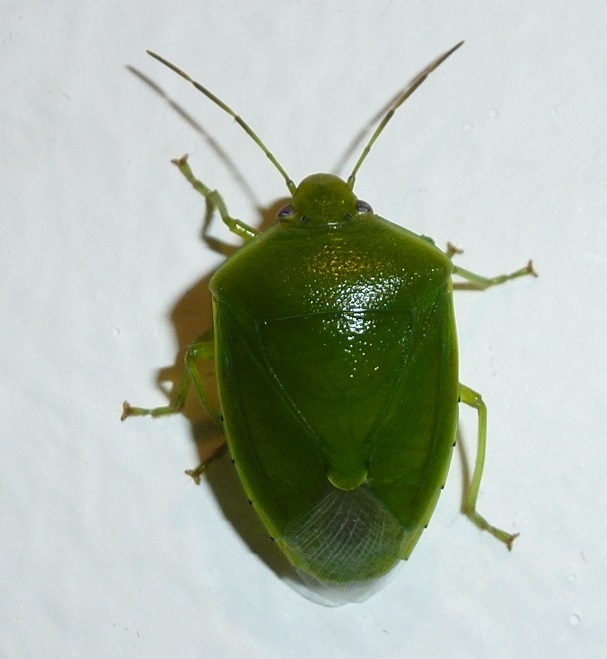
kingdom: Animalia
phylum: Arthropoda
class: Insecta
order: Hemiptera
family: Pentatomidae
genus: Glaucias
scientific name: Glaucias amyota
